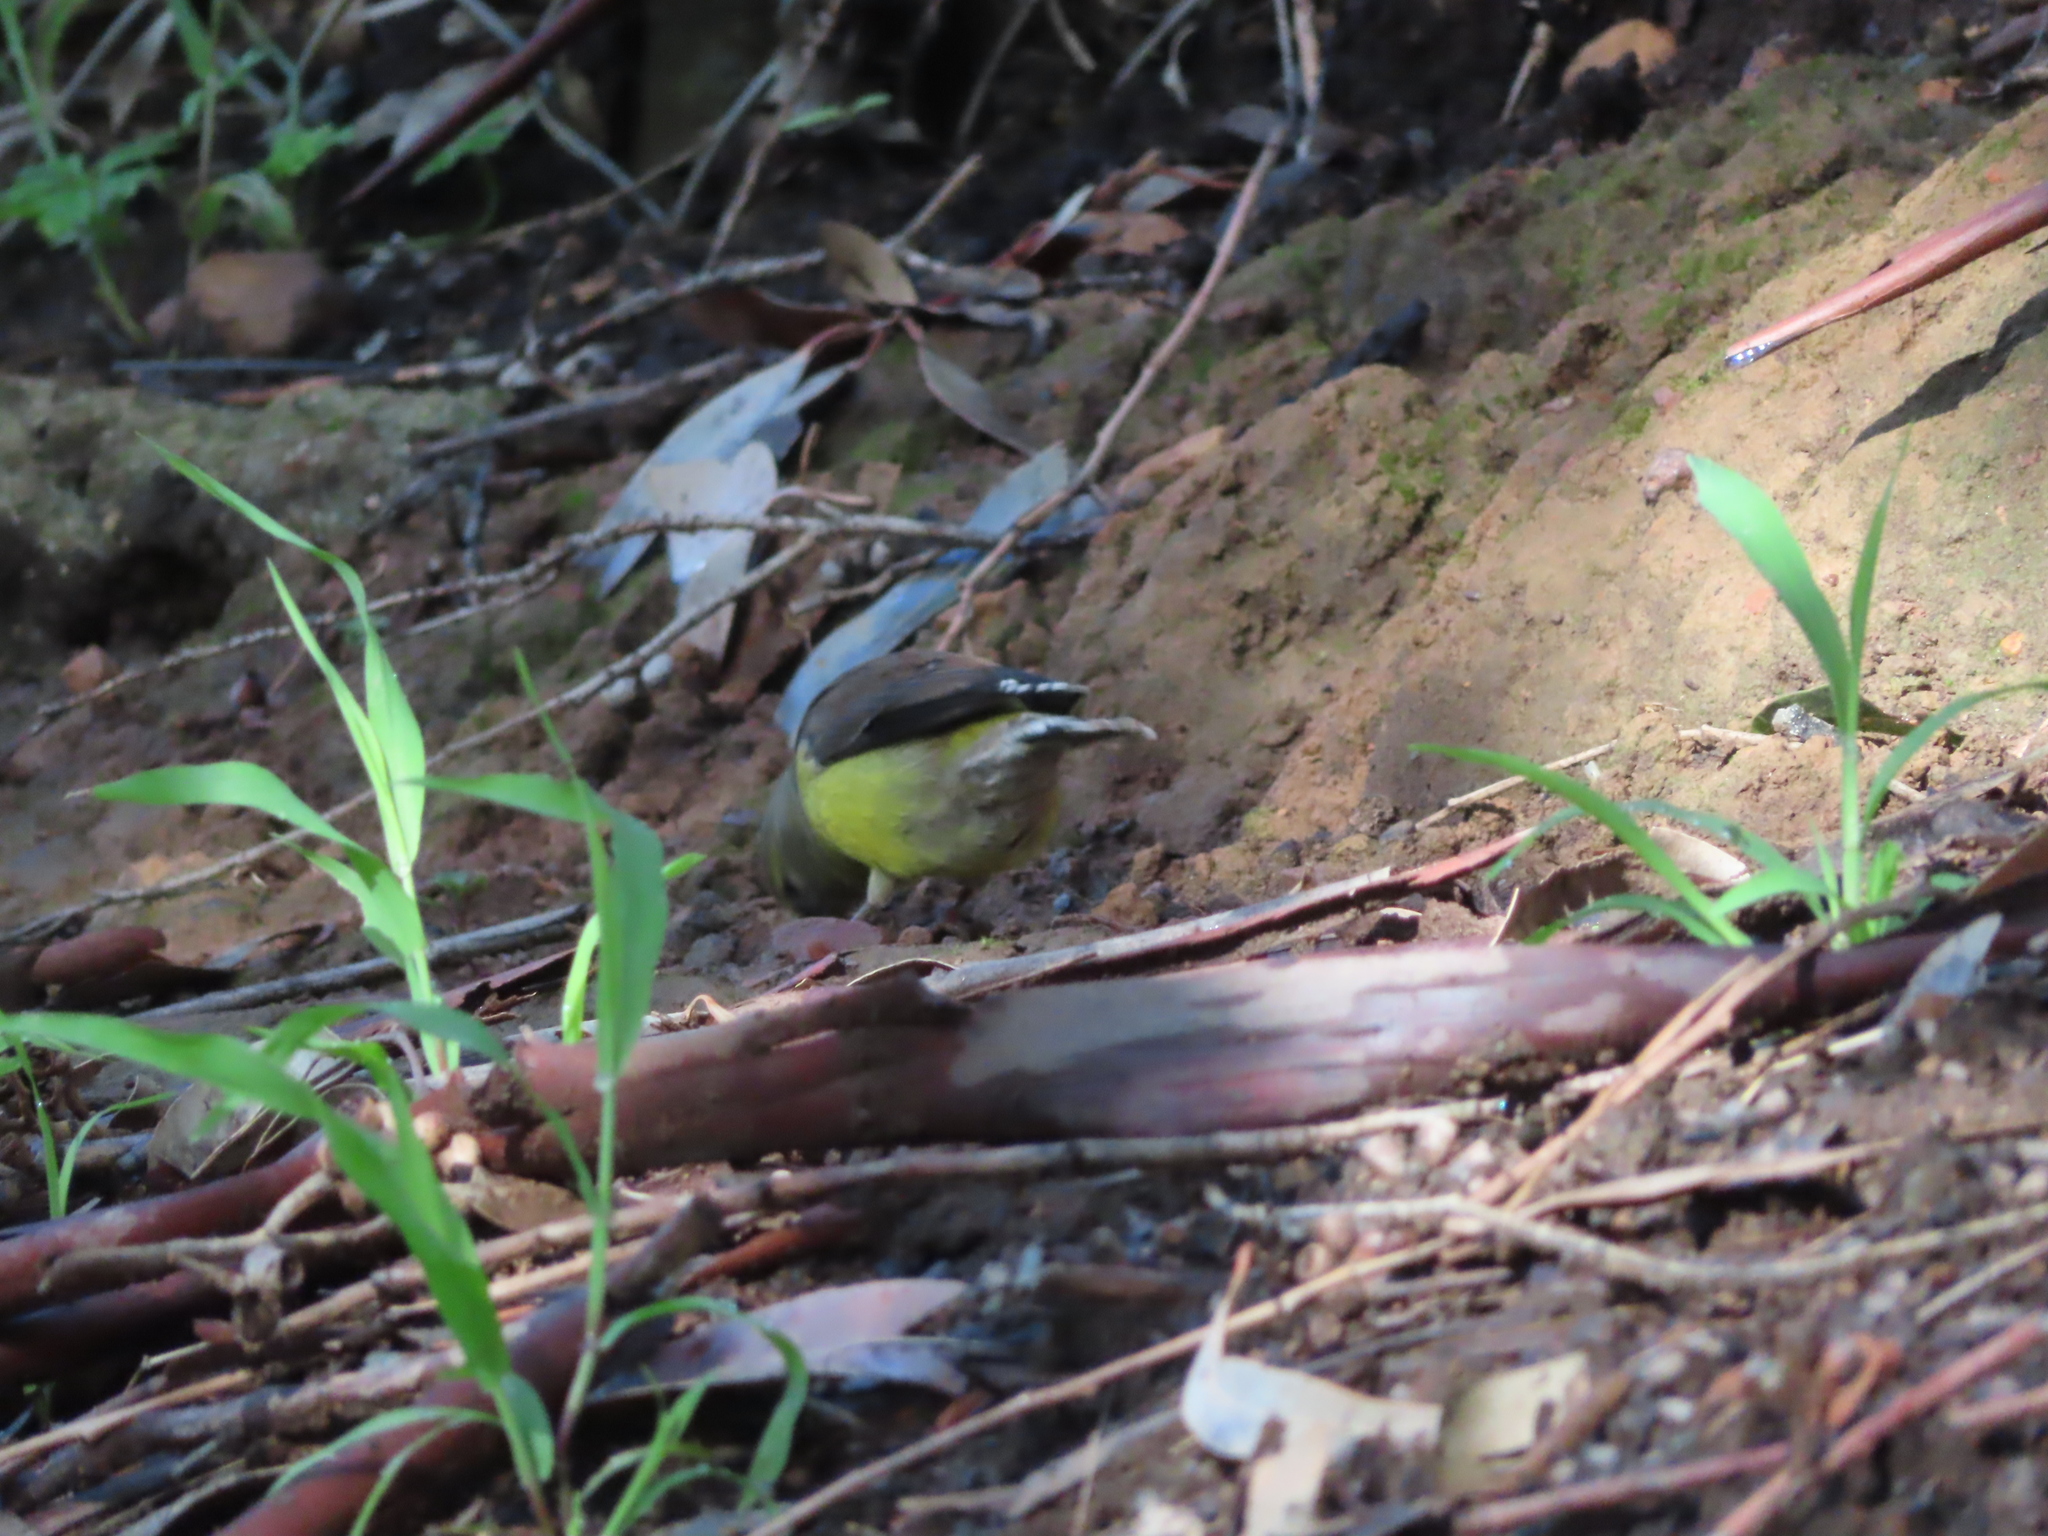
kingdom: Animalia
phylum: Chordata
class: Aves
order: Passeriformes
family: Fringillidae
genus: Crithagra
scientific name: Crithagra totta
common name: Cape siskin
